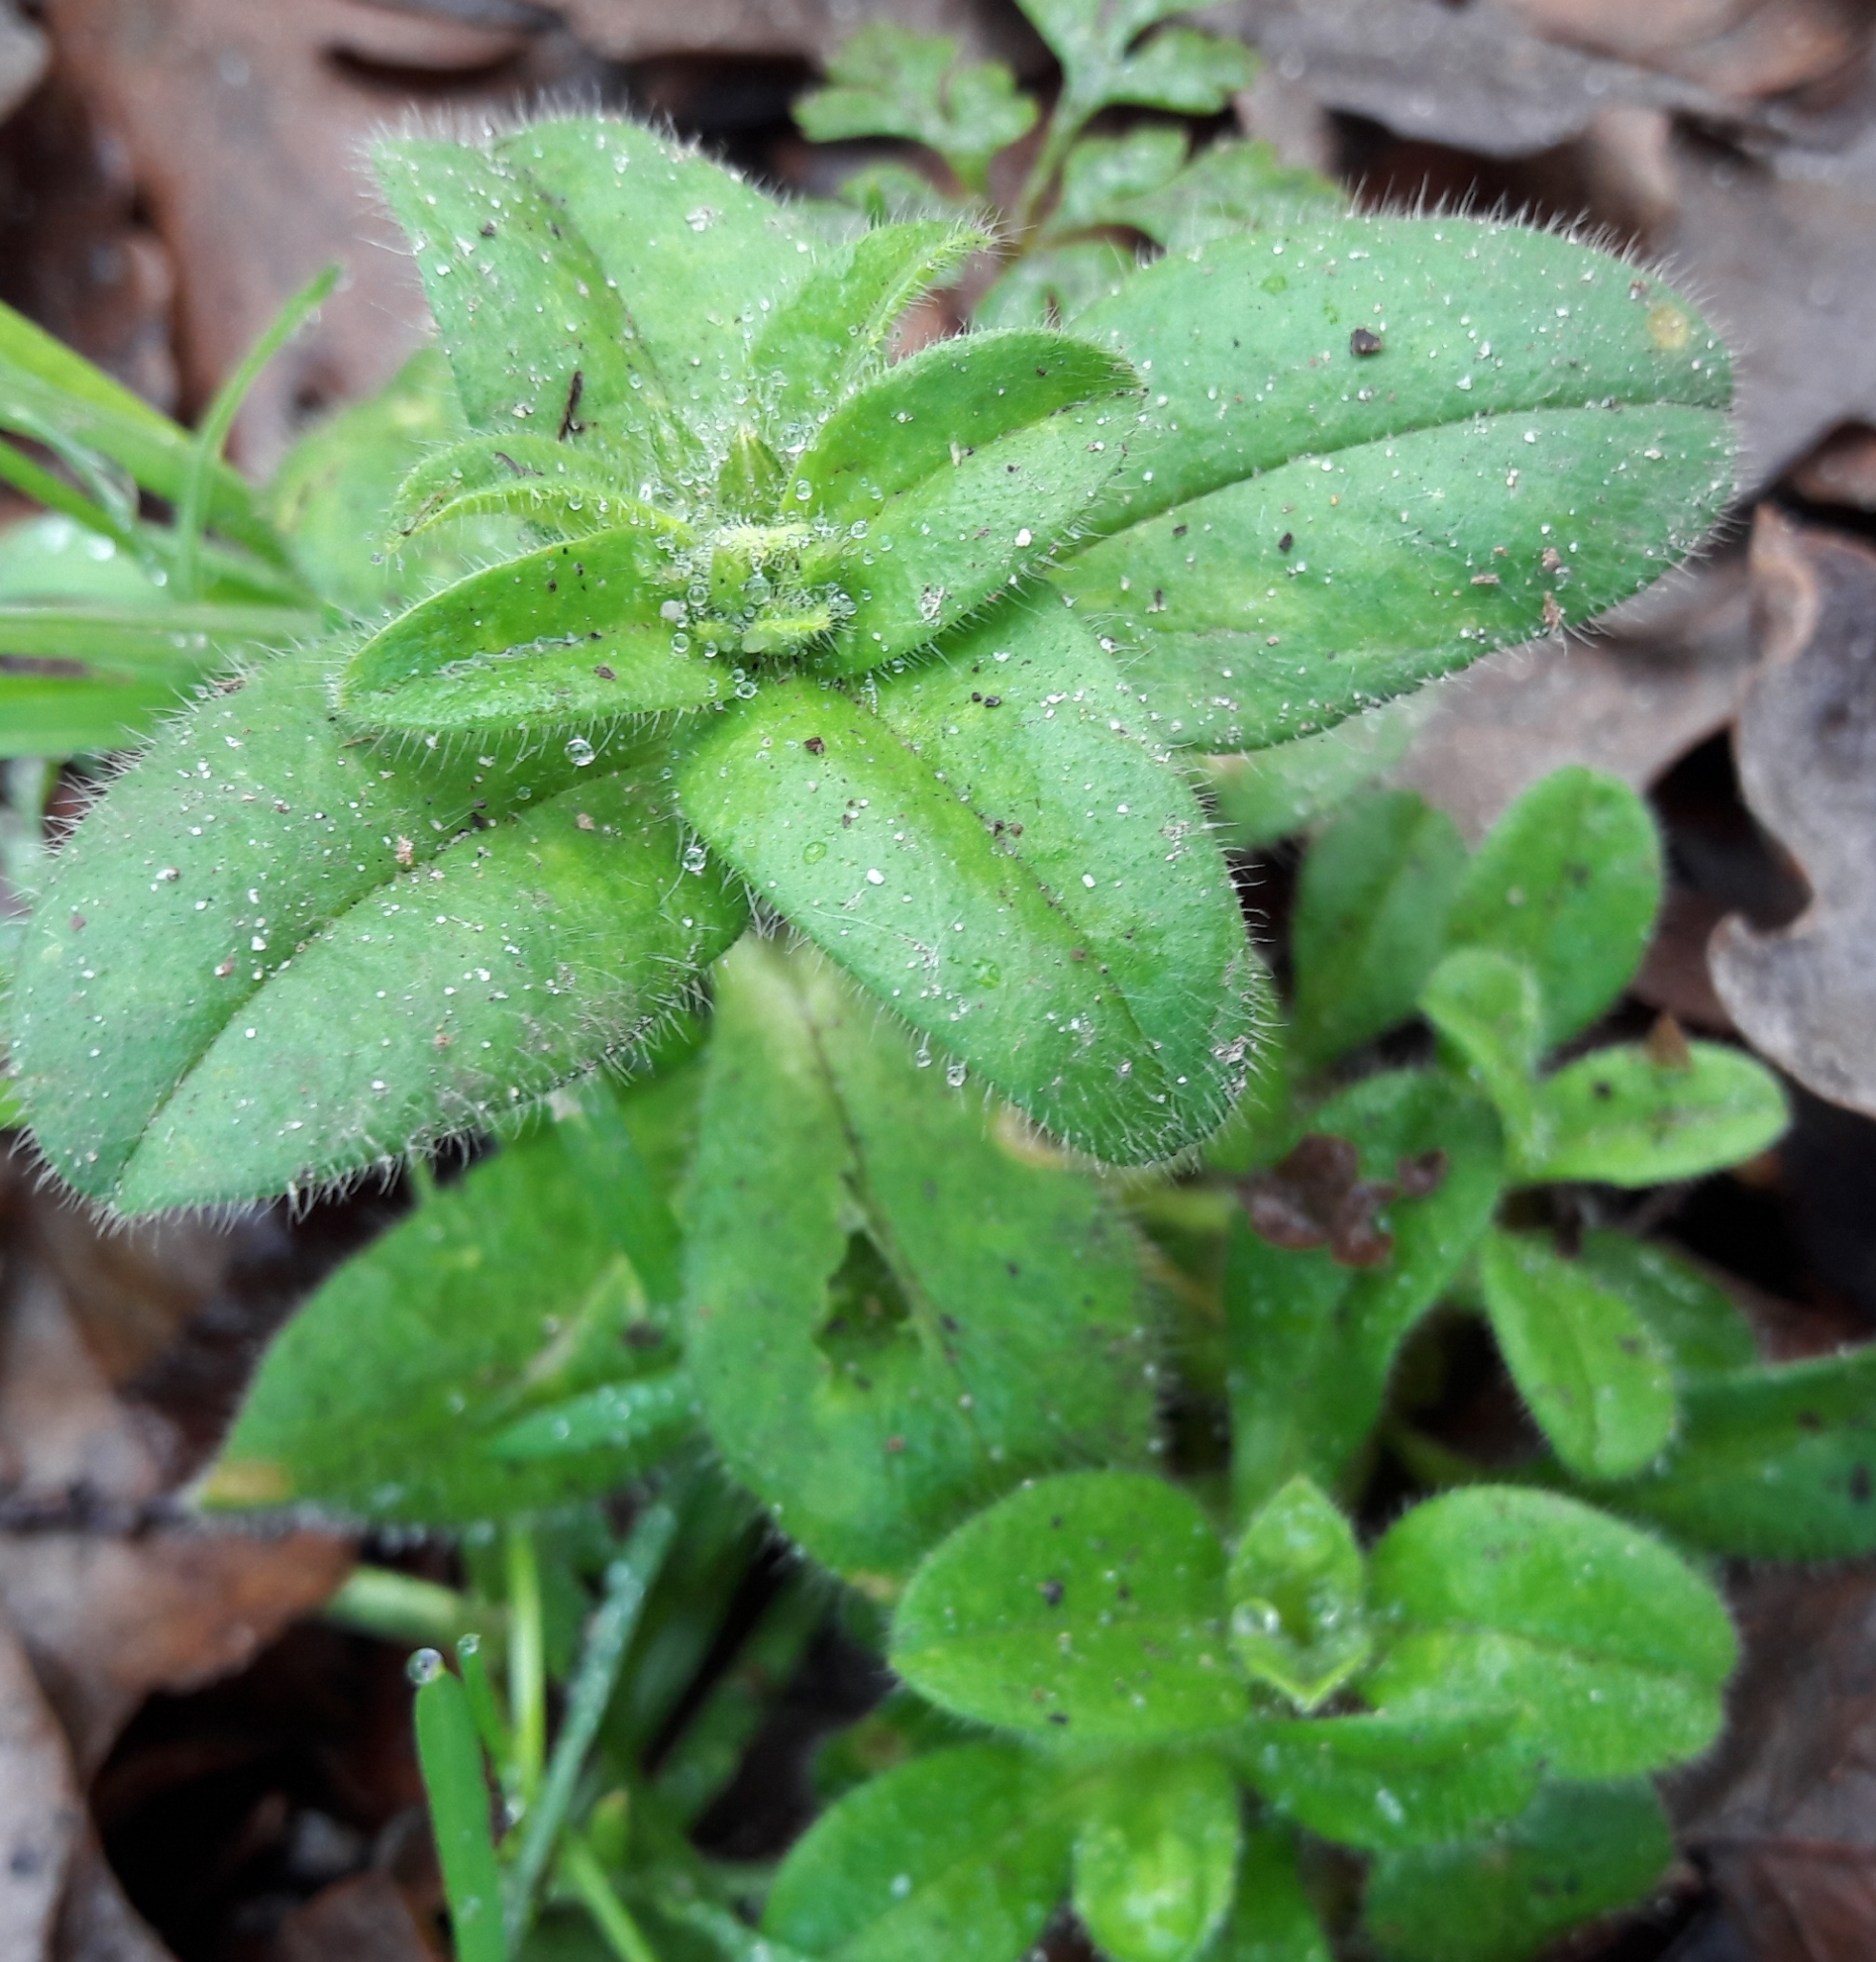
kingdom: Plantae
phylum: Tracheophyta
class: Magnoliopsida
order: Caryophyllales
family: Caryophyllaceae
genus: Cerastium
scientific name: Cerastium glomeratum
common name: Sticky chickweed
